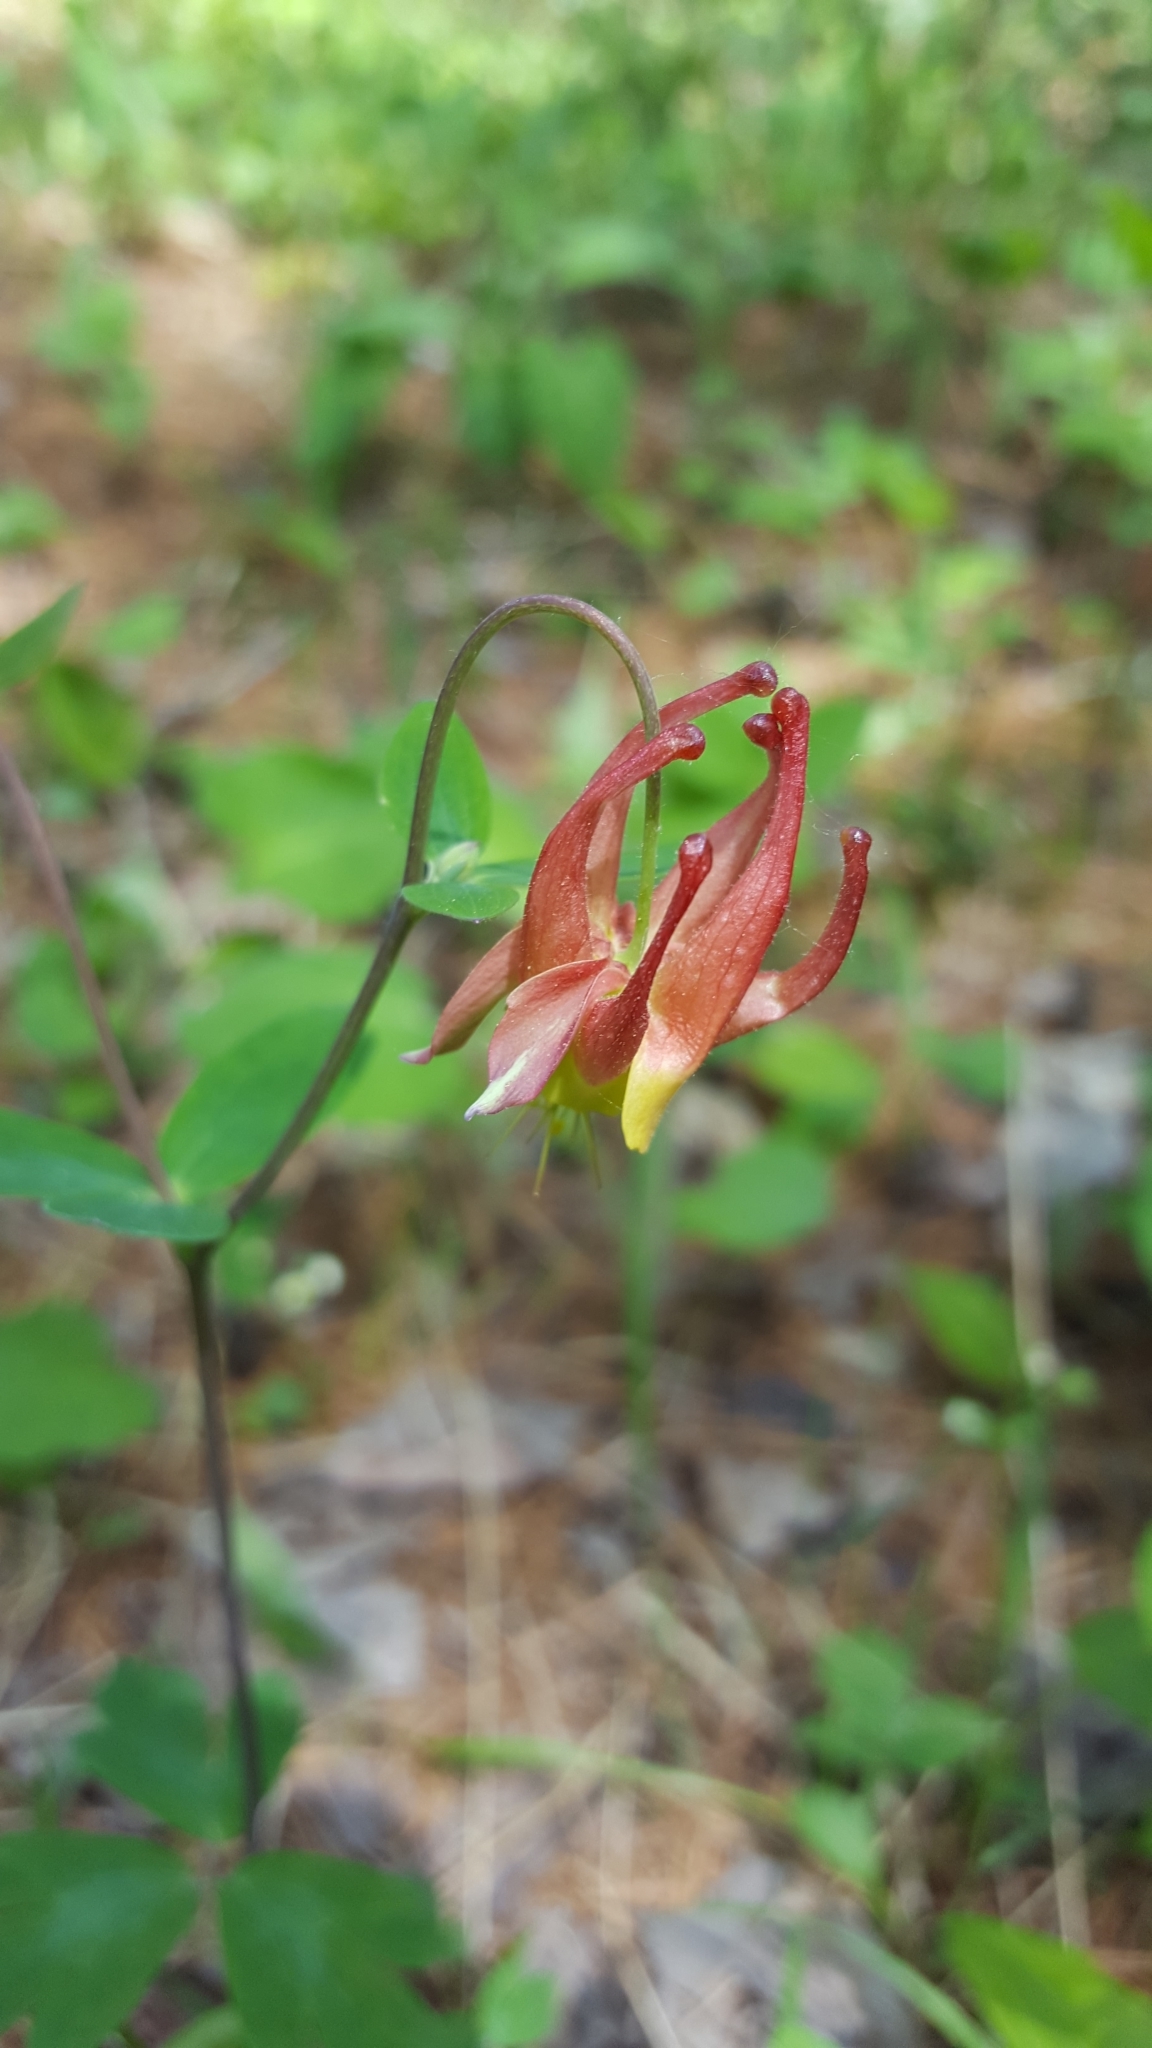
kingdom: Plantae
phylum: Tracheophyta
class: Magnoliopsida
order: Ranunculales
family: Ranunculaceae
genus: Aquilegia
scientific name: Aquilegia canadensis
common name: American columbine
